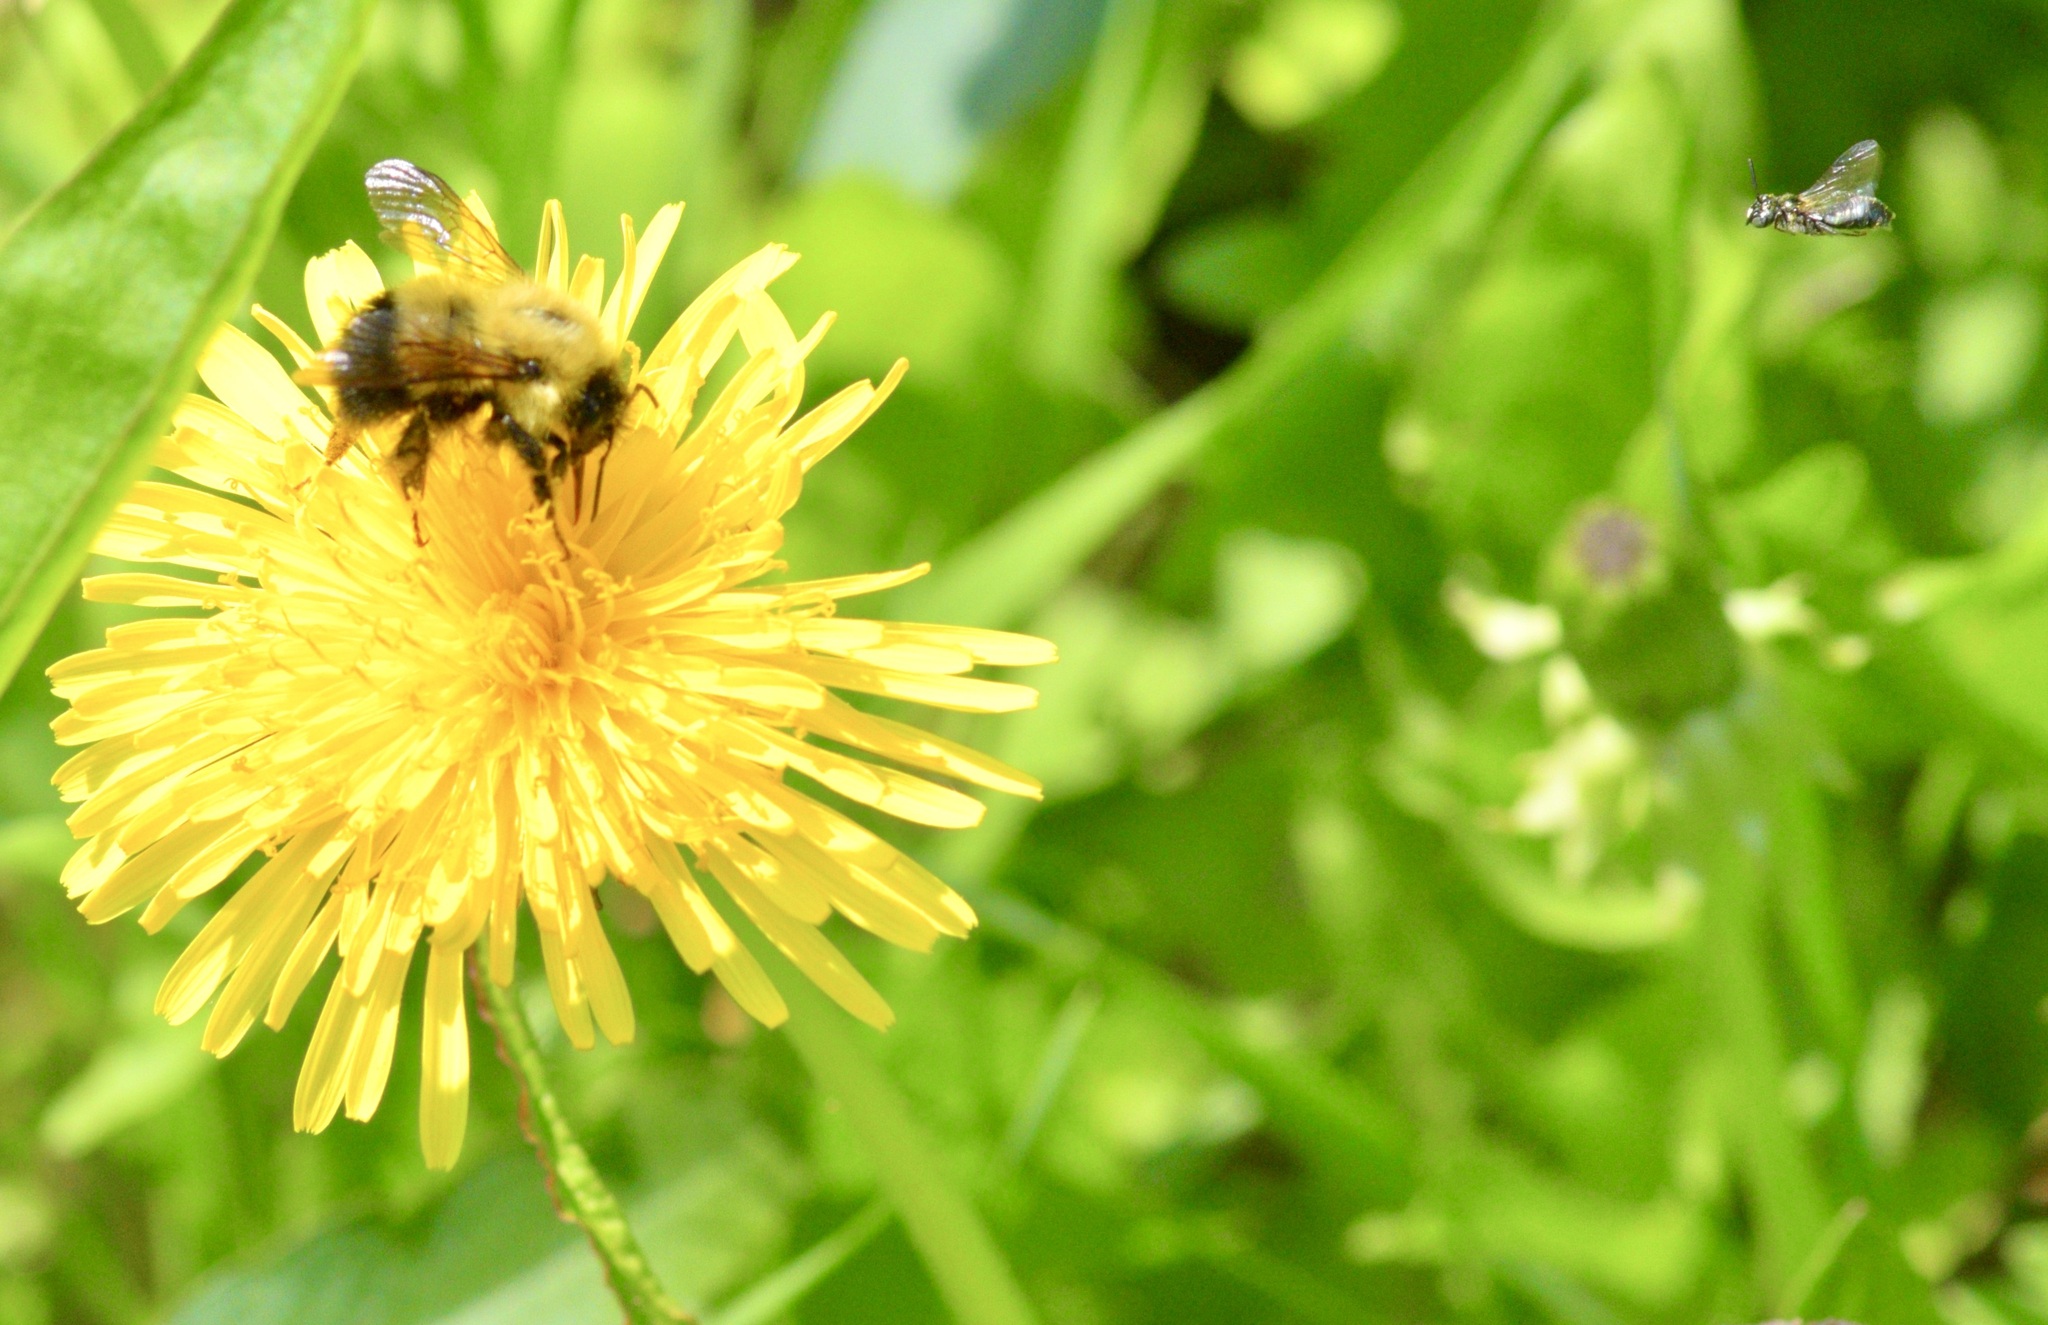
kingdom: Animalia
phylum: Arthropoda
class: Insecta
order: Hymenoptera
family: Apidae
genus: Pyrobombus
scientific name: Pyrobombus
